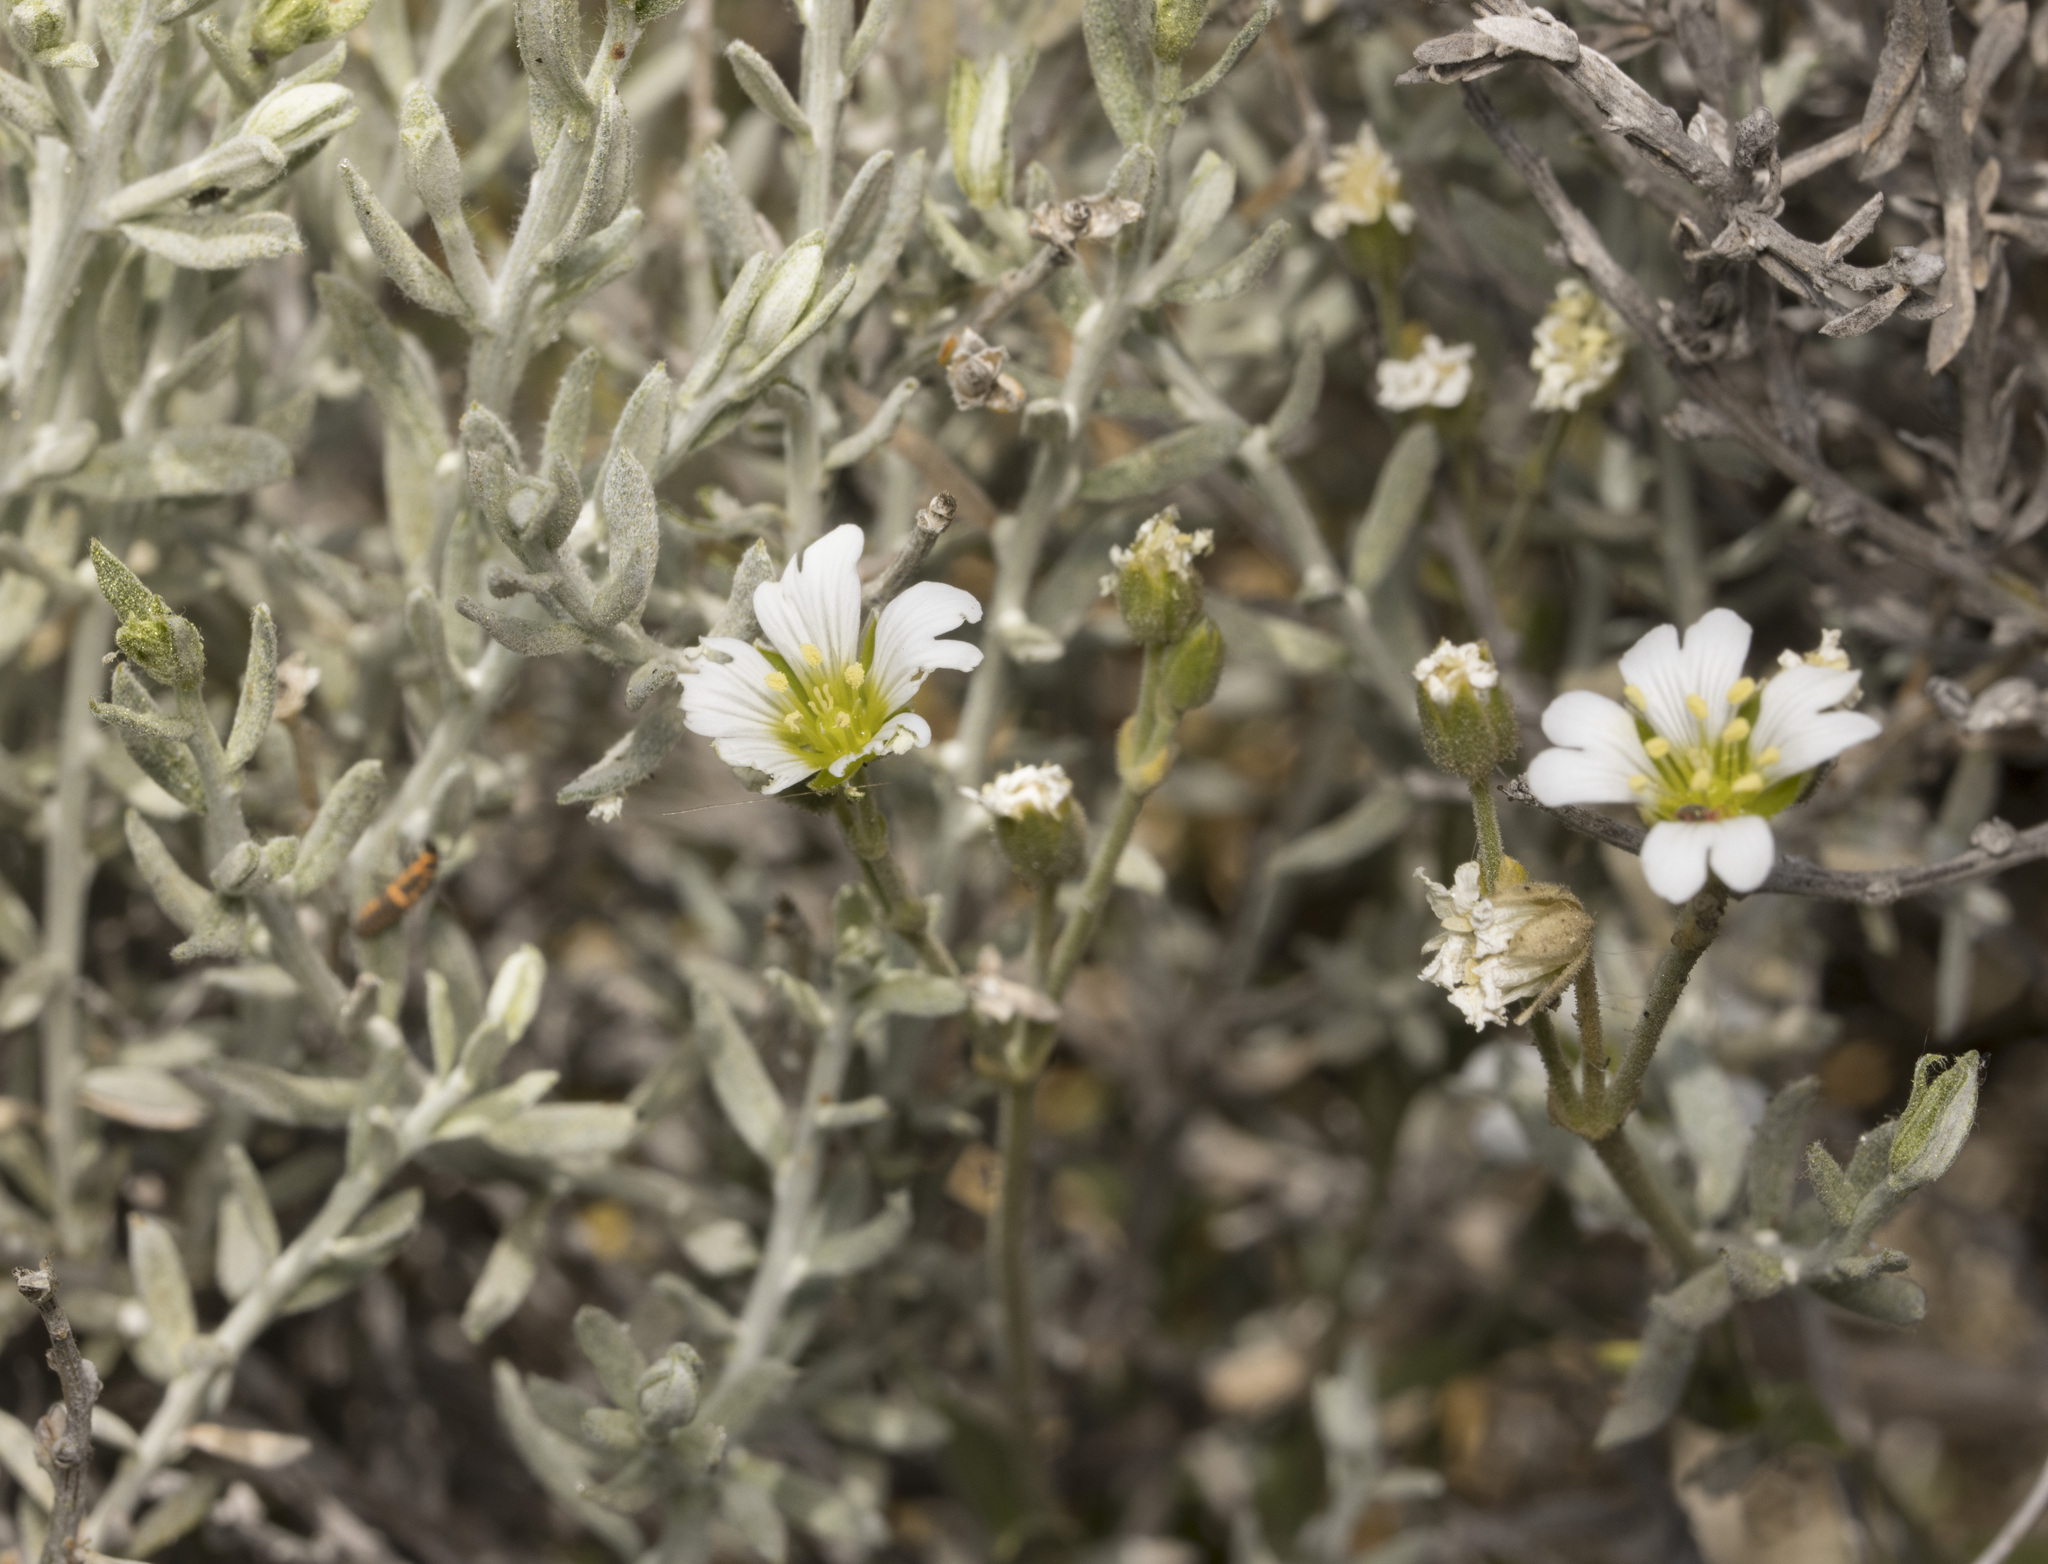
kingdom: Plantae
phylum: Tracheophyta
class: Magnoliopsida
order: Caryophyllales
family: Caryophyllaceae
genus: Cerastium
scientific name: Cerastium arvense
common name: Field mouse-ear
